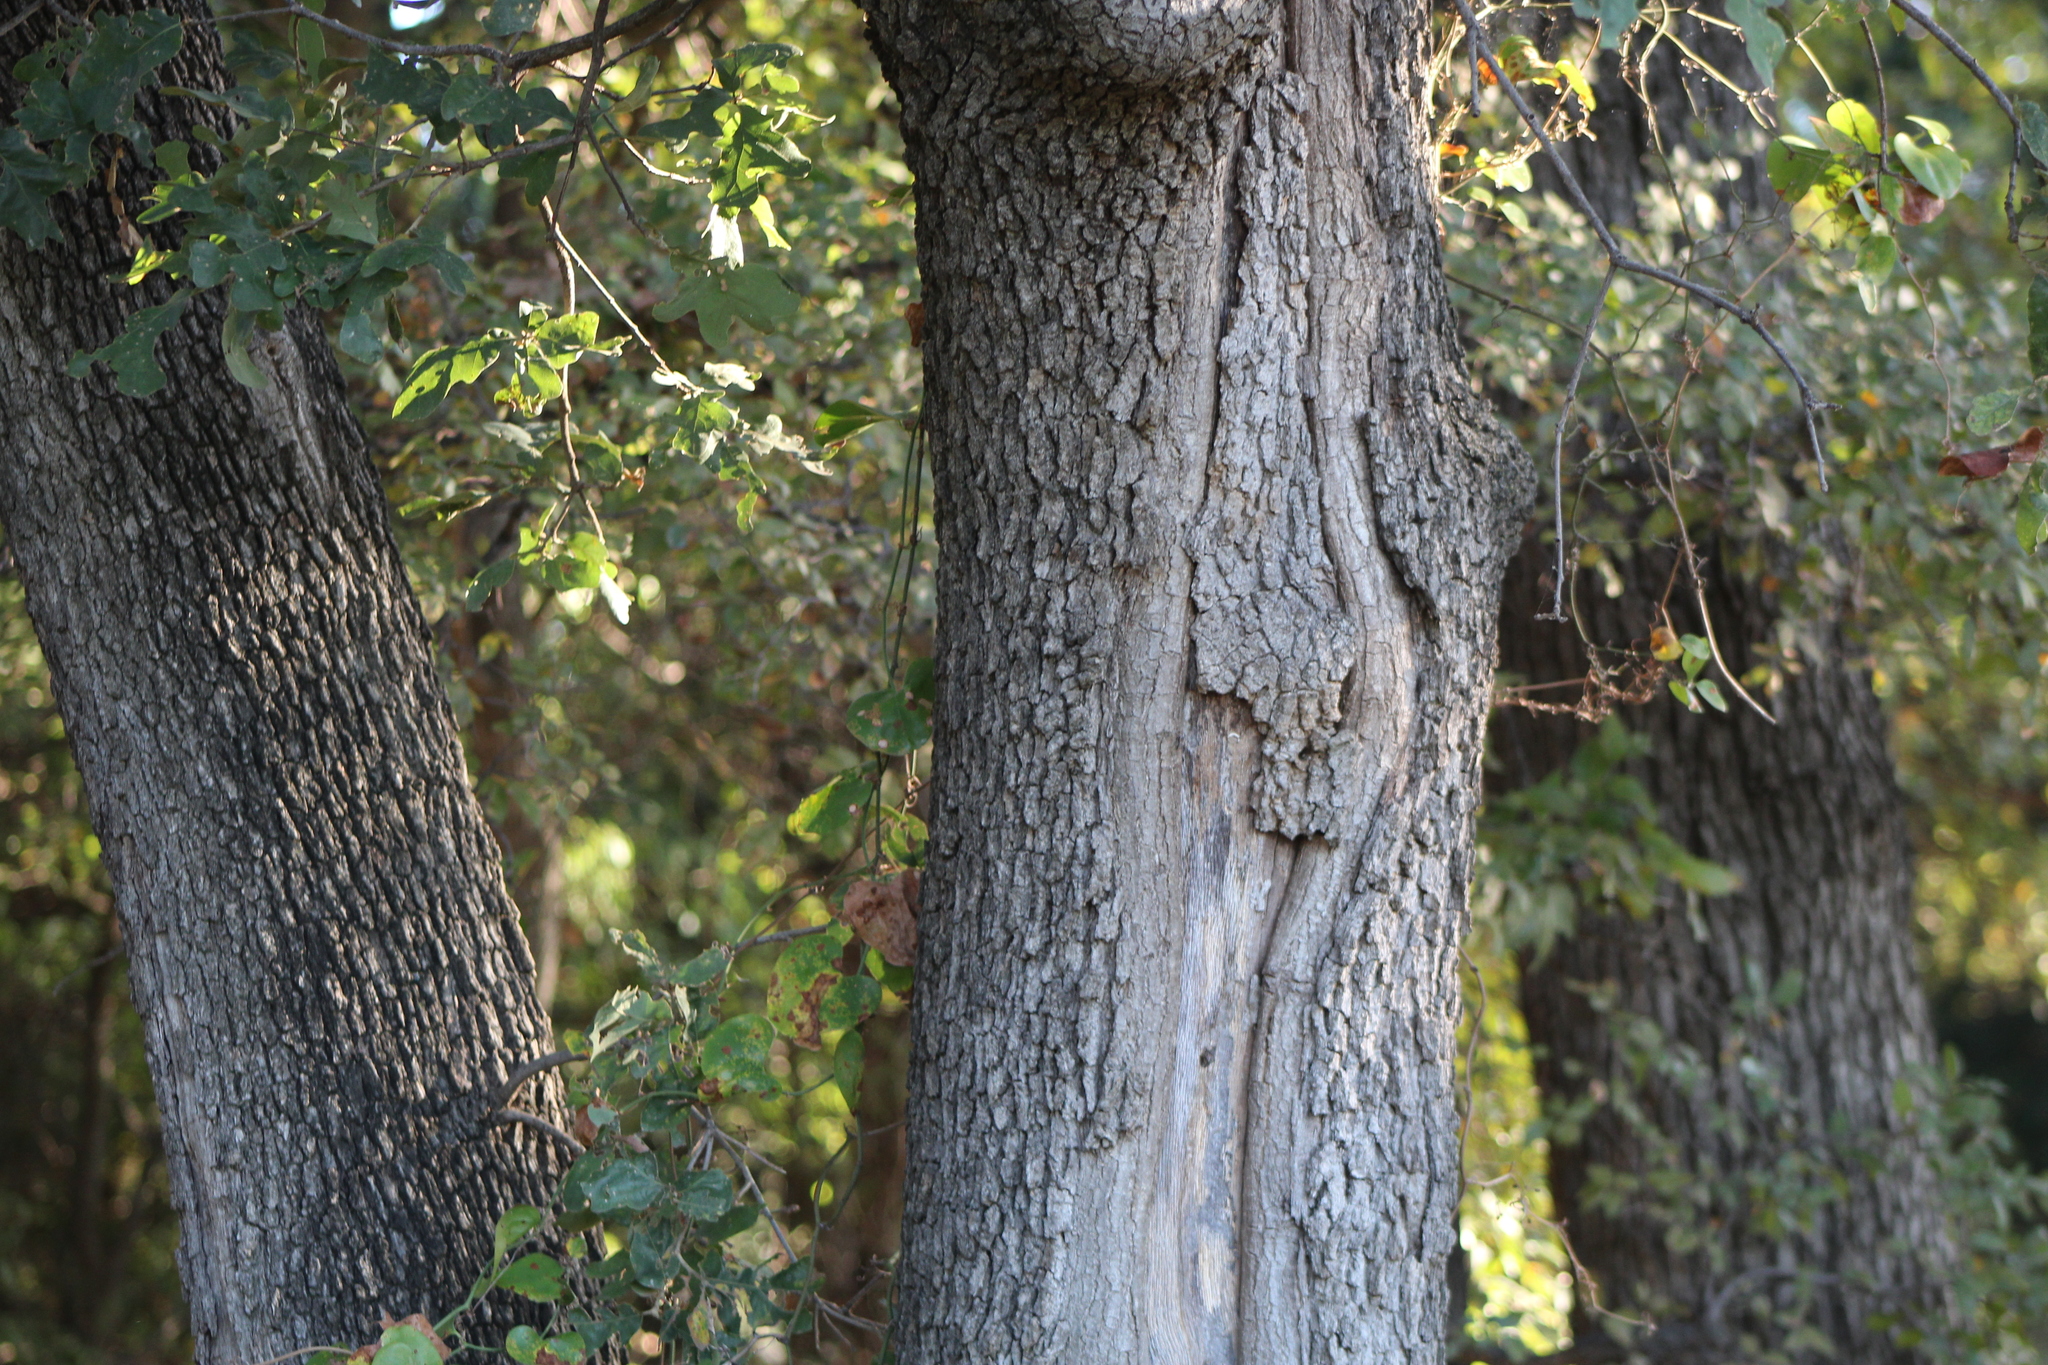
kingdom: Plantae
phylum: Tracheophyta
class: Magnoliopsida
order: Fagales
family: Fagaceae
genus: Quercus
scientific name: Quercus stellata
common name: Post oak
